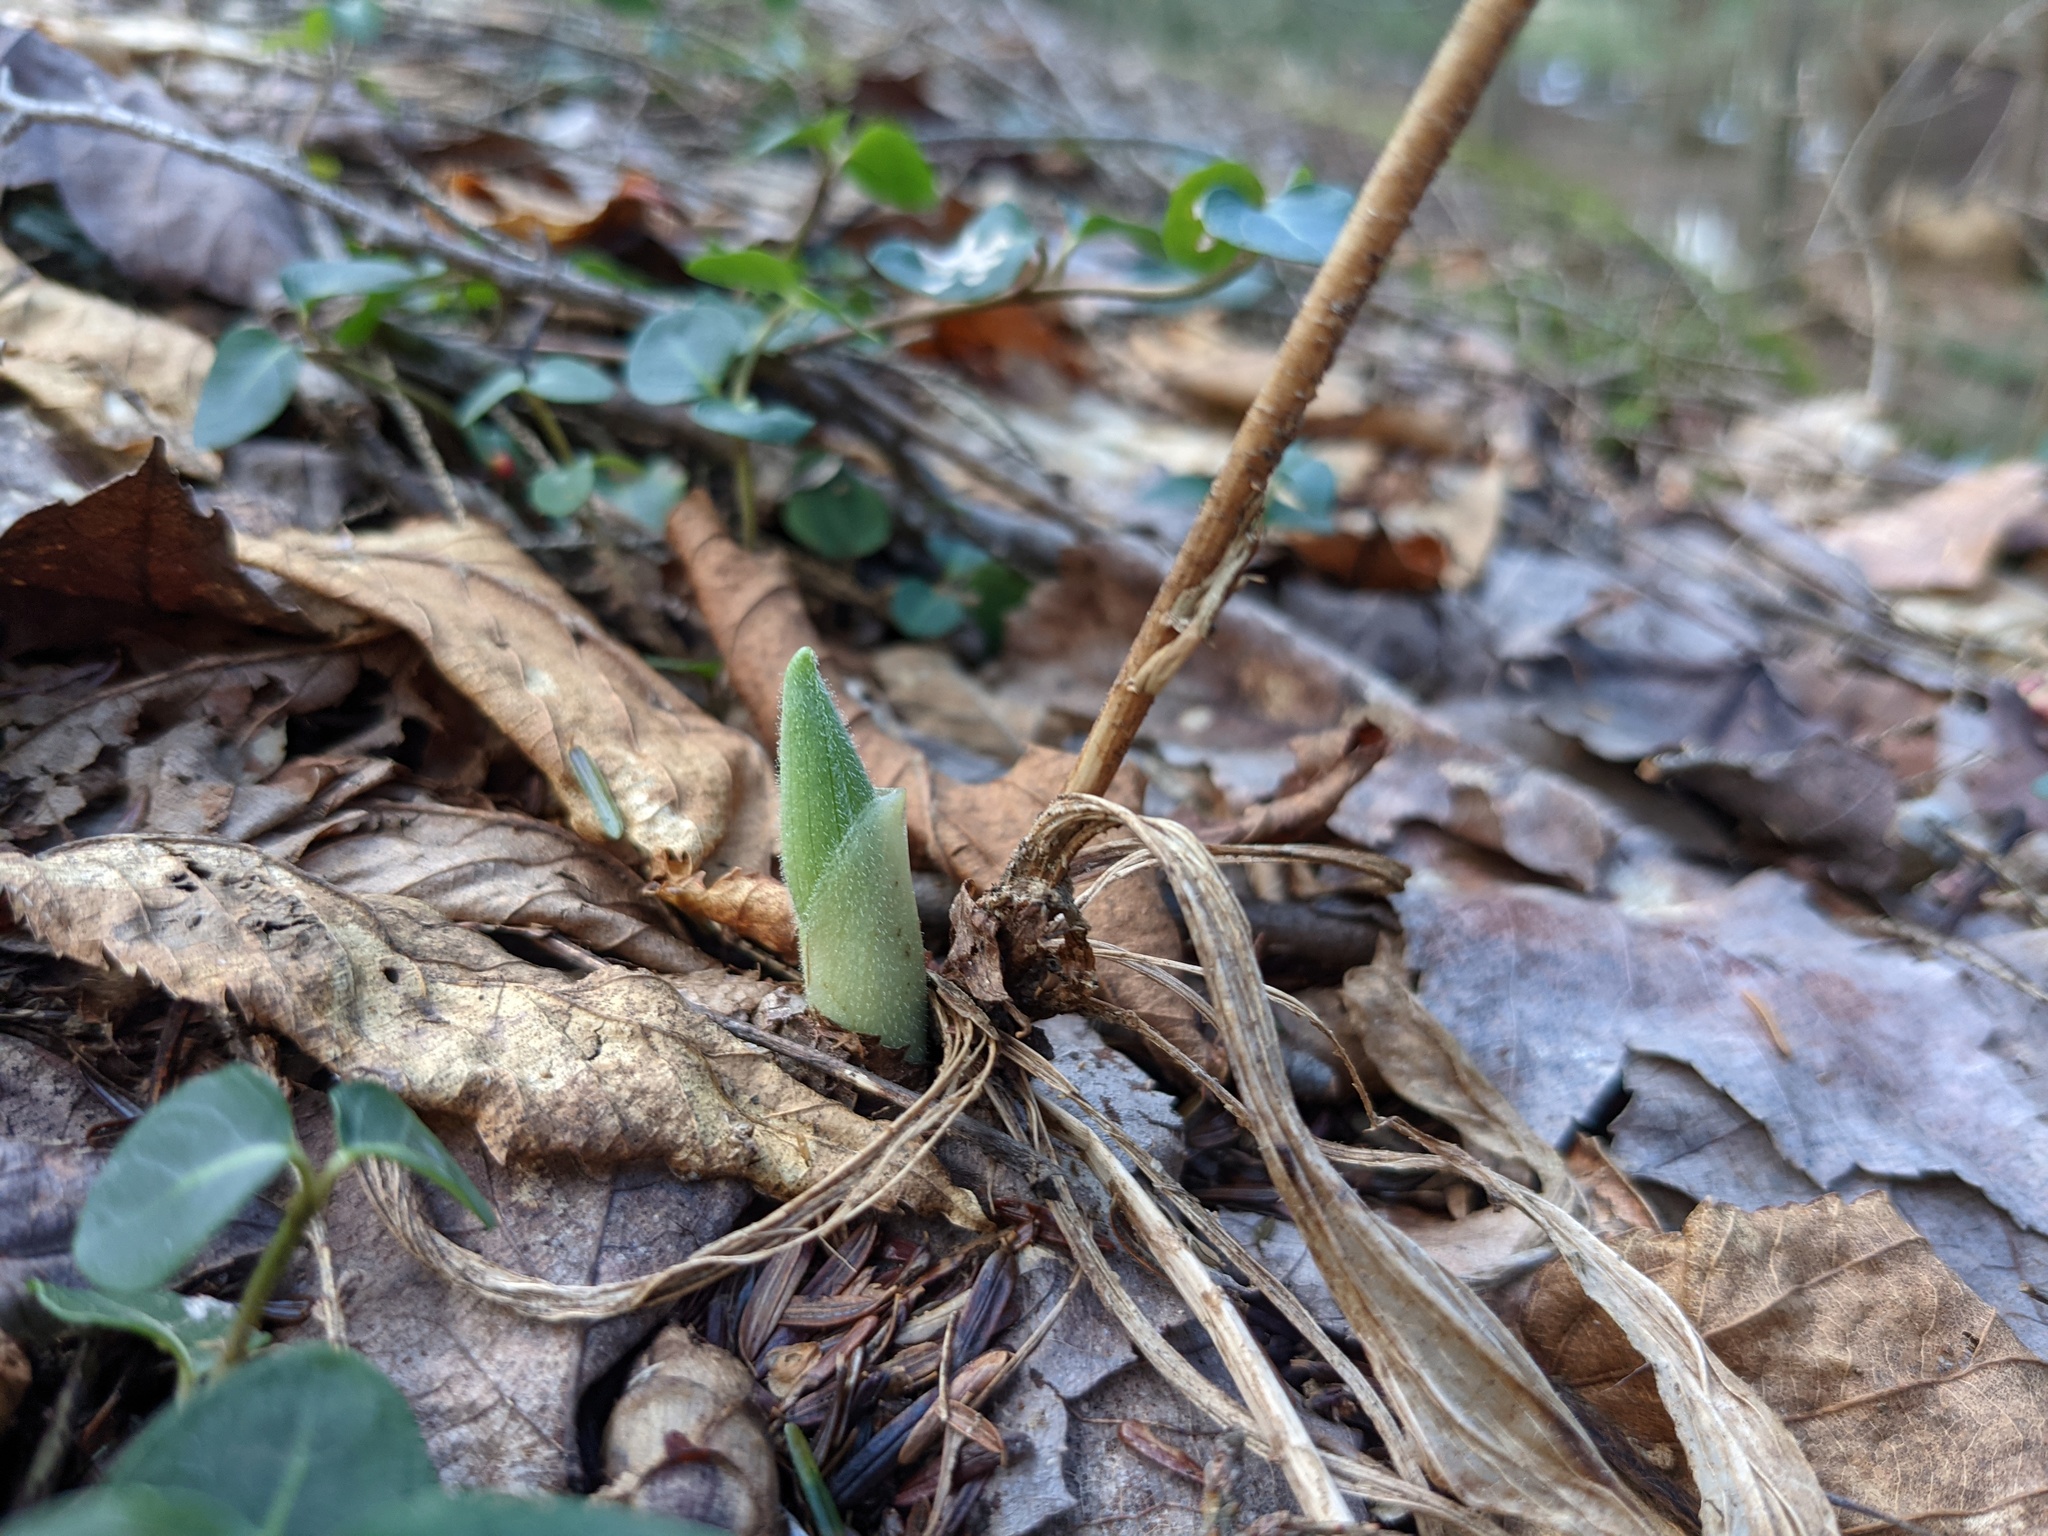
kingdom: Plantae
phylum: Tracheophyta
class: Liliopsida
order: Asparagales
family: Orchidaceae
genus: Cypripedium
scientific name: Cypripedium acaule
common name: Pink lady's-slipper
